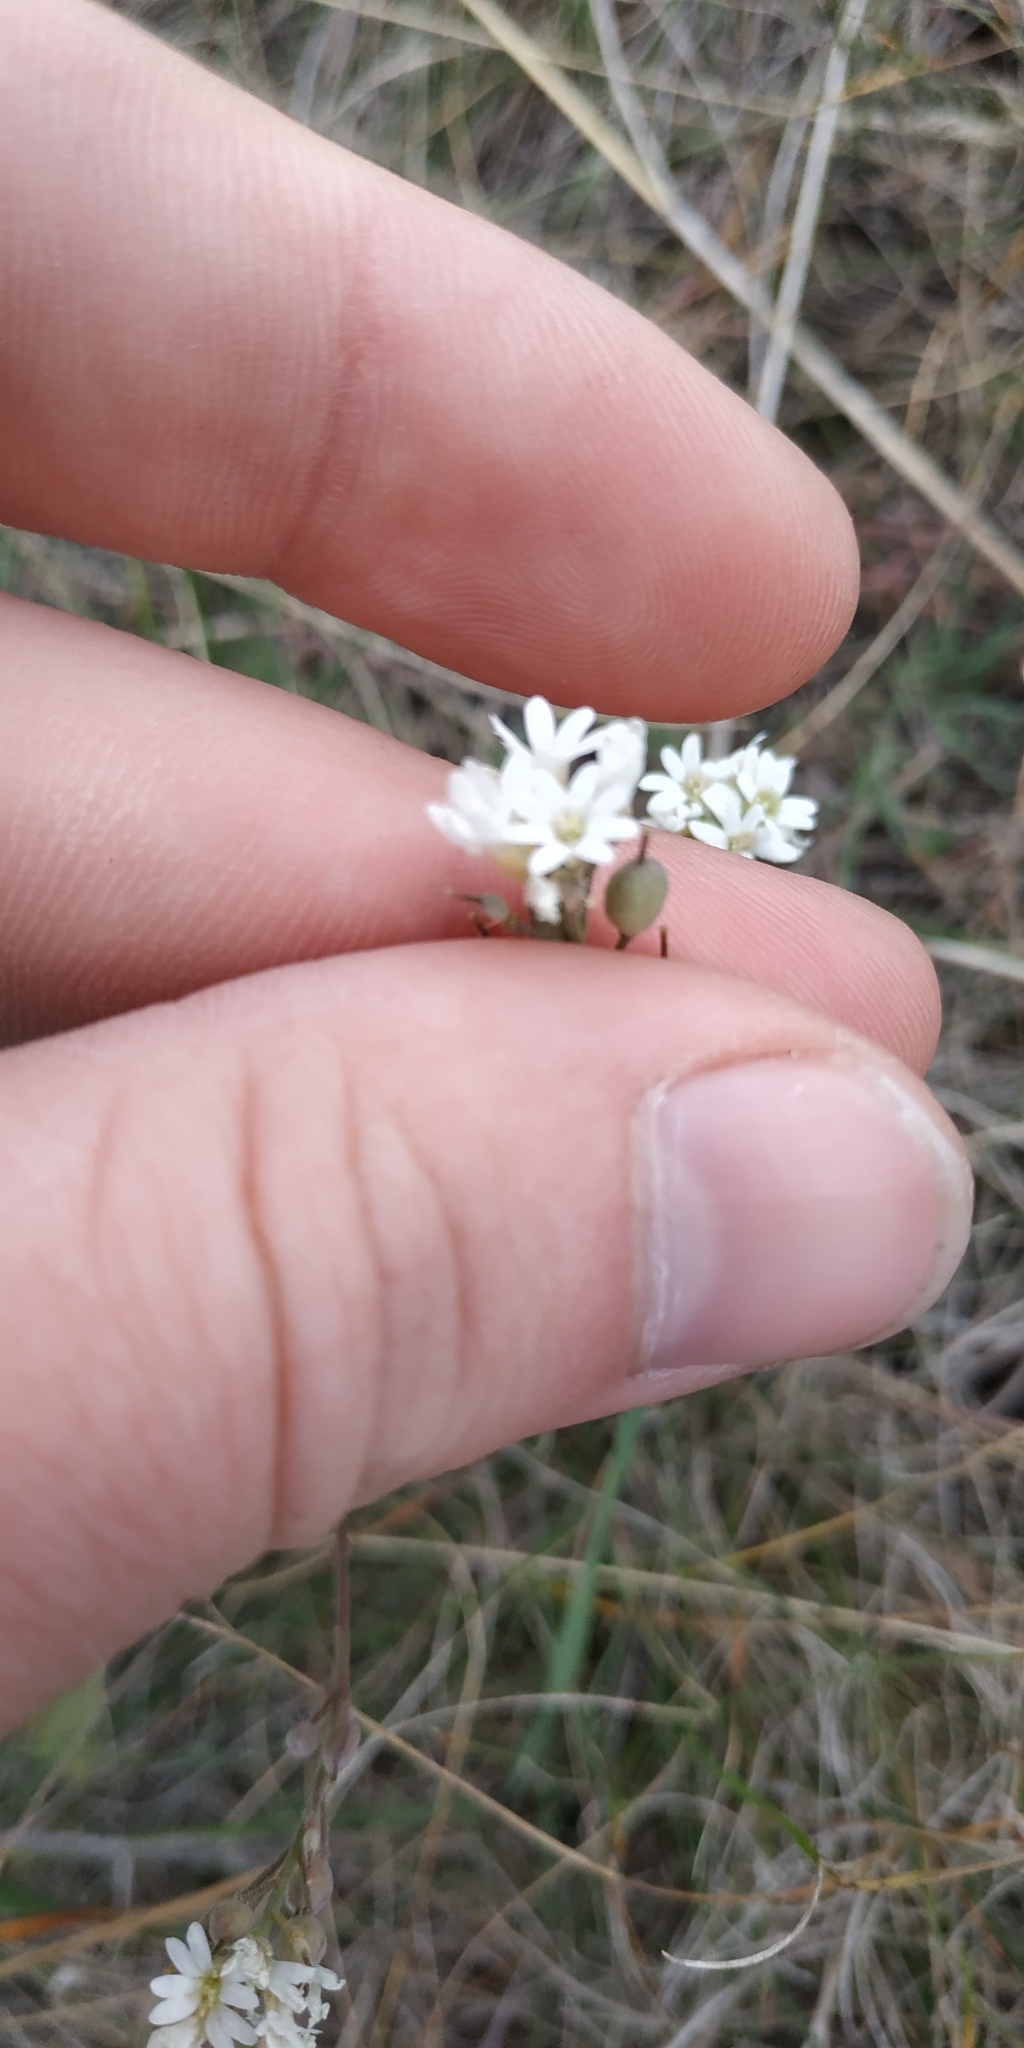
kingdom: Plantae
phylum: Tracheophyta
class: Magnoliopsida
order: Brassicales
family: Brassicaceae
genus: Berteroa
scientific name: Berteroa incana
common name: Hoary alison
